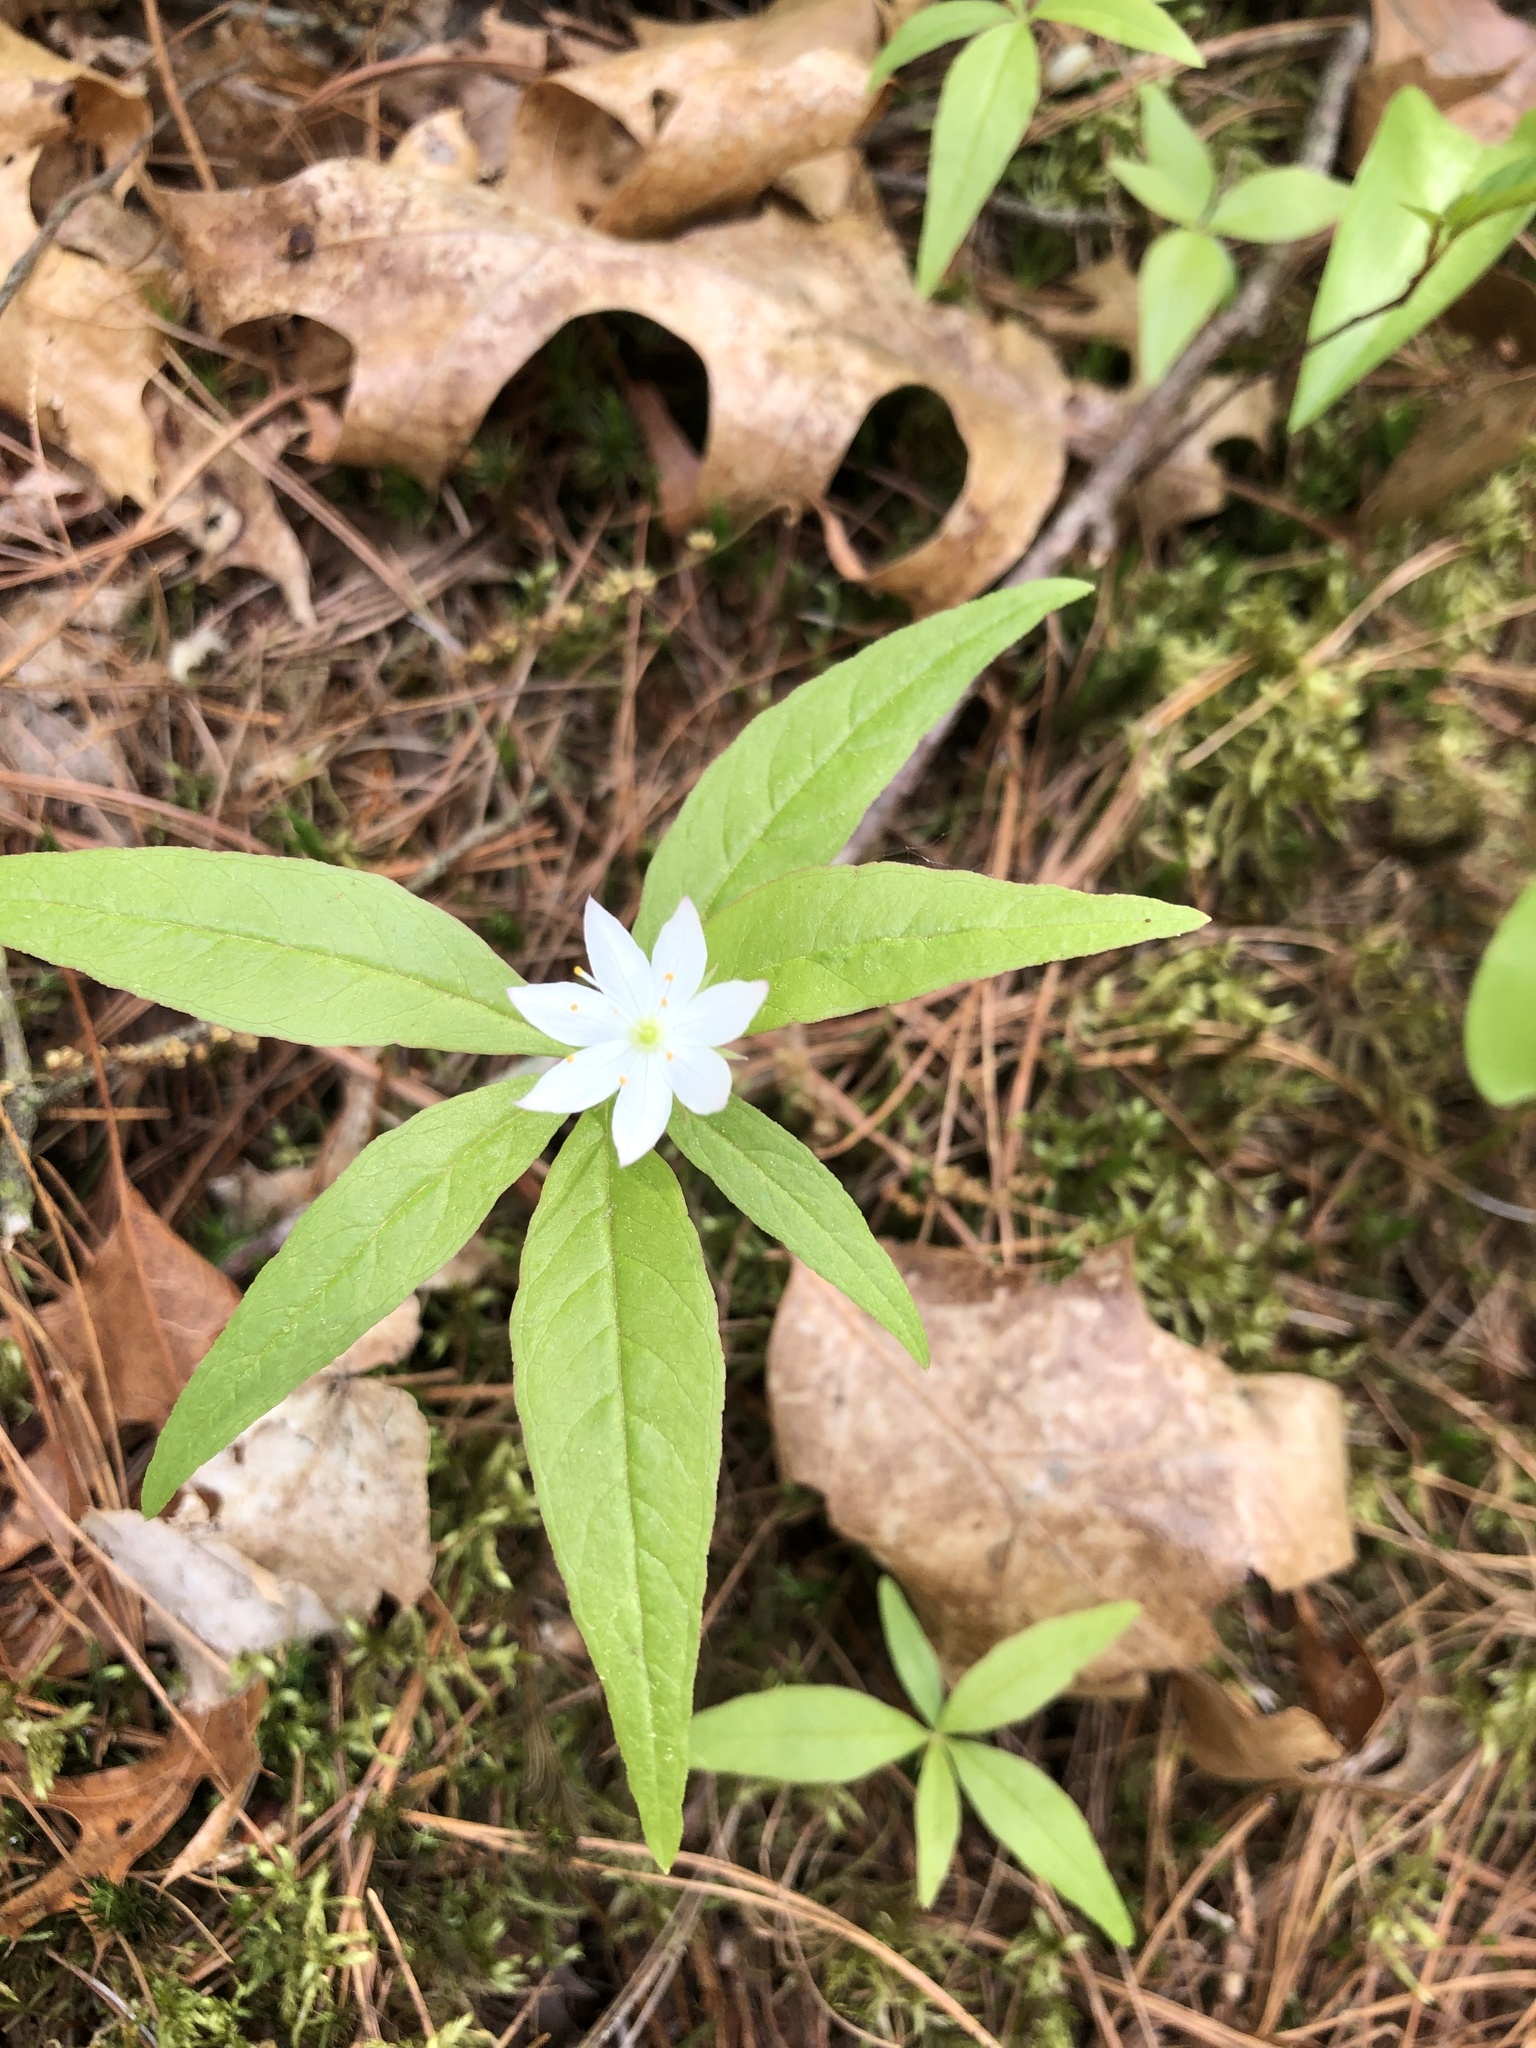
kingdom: Plantae
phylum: Tracheophyta
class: Magnoliopsida
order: Ericales
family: Primulaceae
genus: Lysimachia
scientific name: Lysimachia borealis
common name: American starflower
